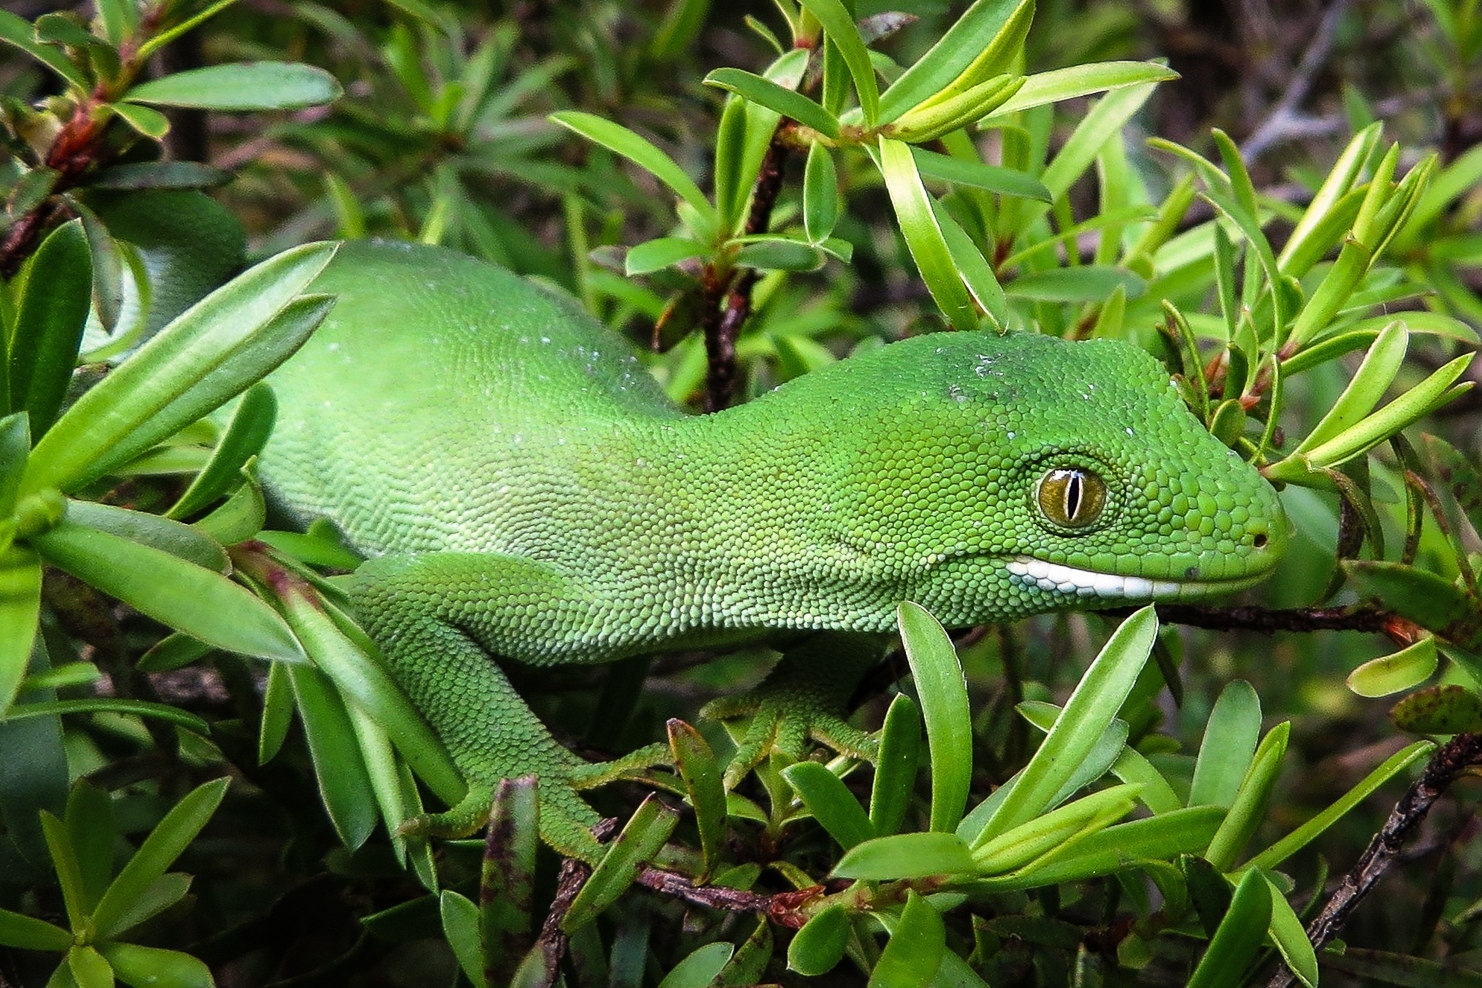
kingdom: Animalia
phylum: Chordata
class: Squamata
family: Diplodactylidae
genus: Naultinus
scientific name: Naultinus elegans
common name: Auckland green gecko
